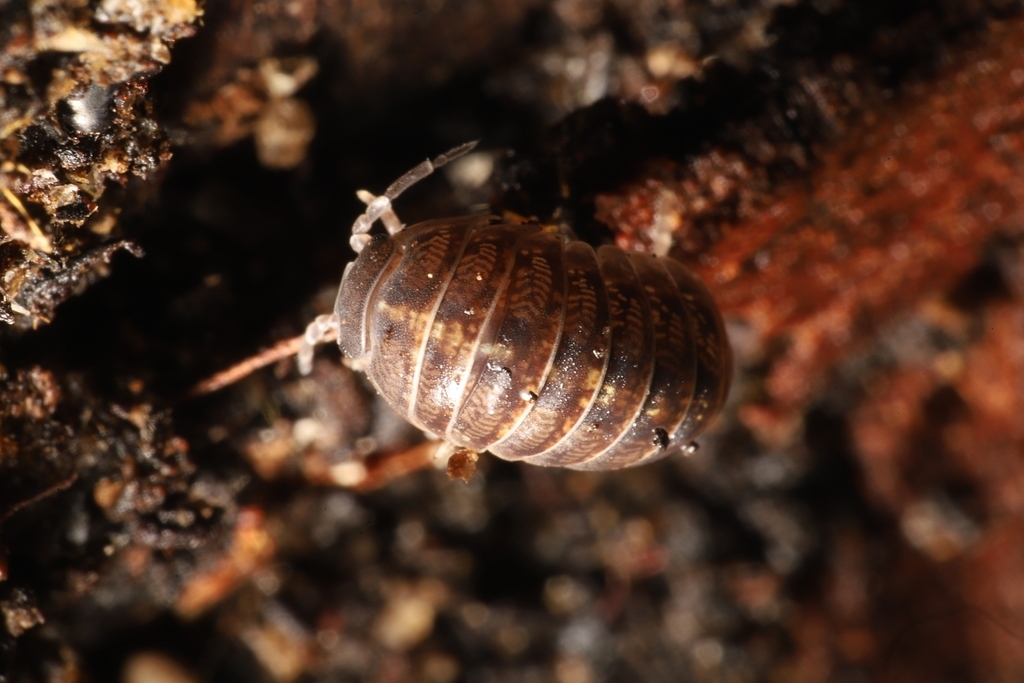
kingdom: Animalia
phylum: Arthropoda
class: Malacostraca
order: Isopoda
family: Armadillidiidae
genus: Armadillidium
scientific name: Armadillidium vulgare
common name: Common pill woodlouse
